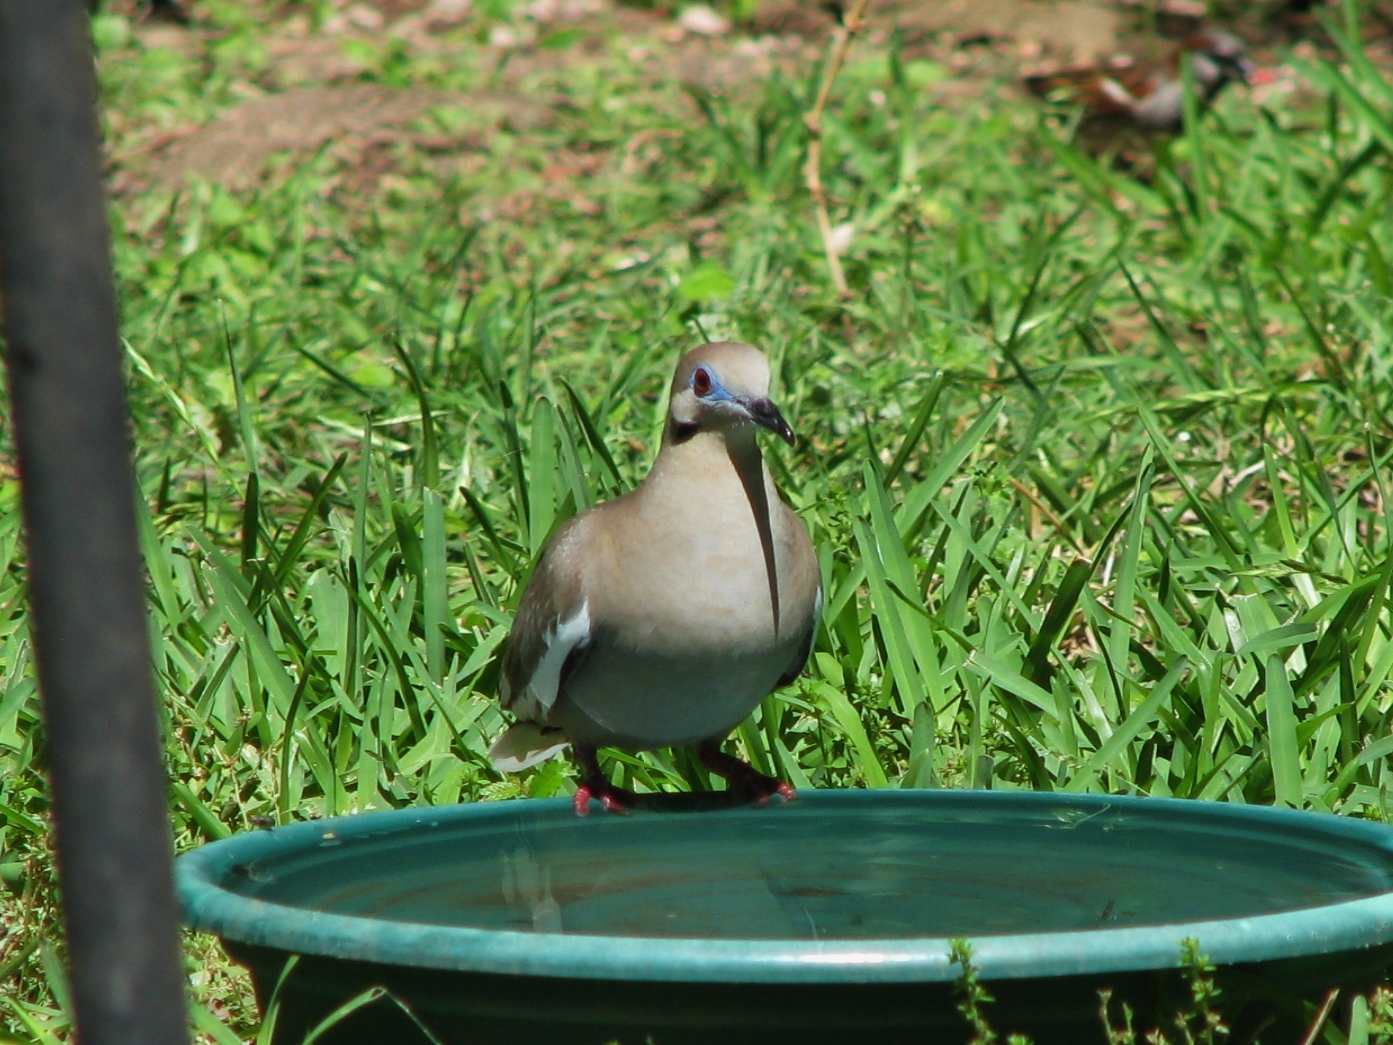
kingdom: Animalia
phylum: Chordata
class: Aves
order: Columbiformes
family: Columbidae
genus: Zenaida
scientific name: Zenaida asiatica
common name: White-winged dove
